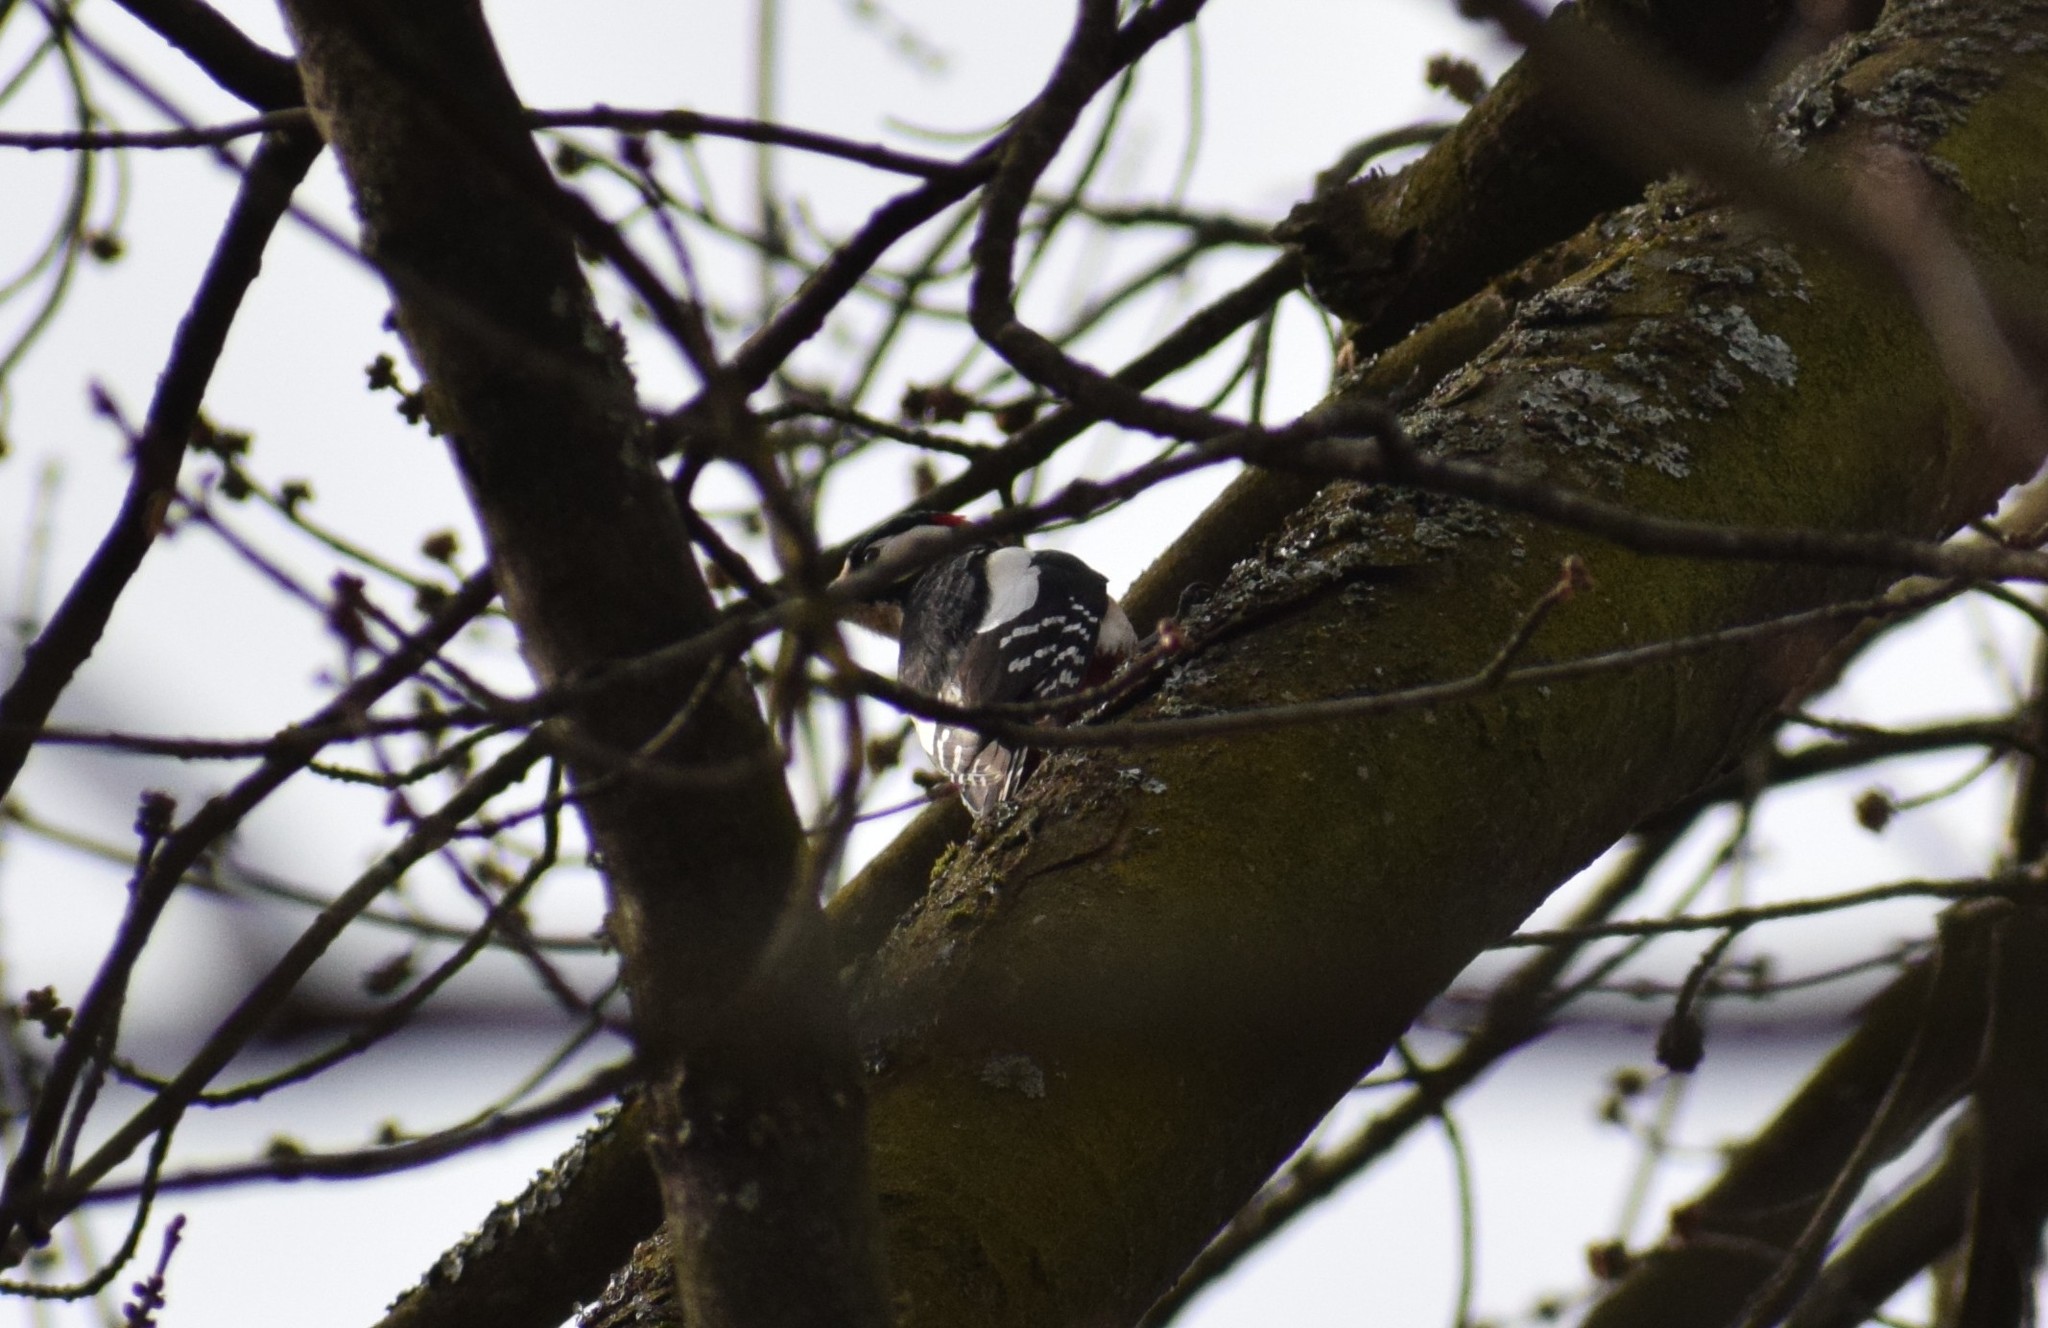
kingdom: Animalia
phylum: Chordata
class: Aves
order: Piciformes
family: Picidae
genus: Dendrocopos
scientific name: Dendrocopos major
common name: Great spotted woodpecker
